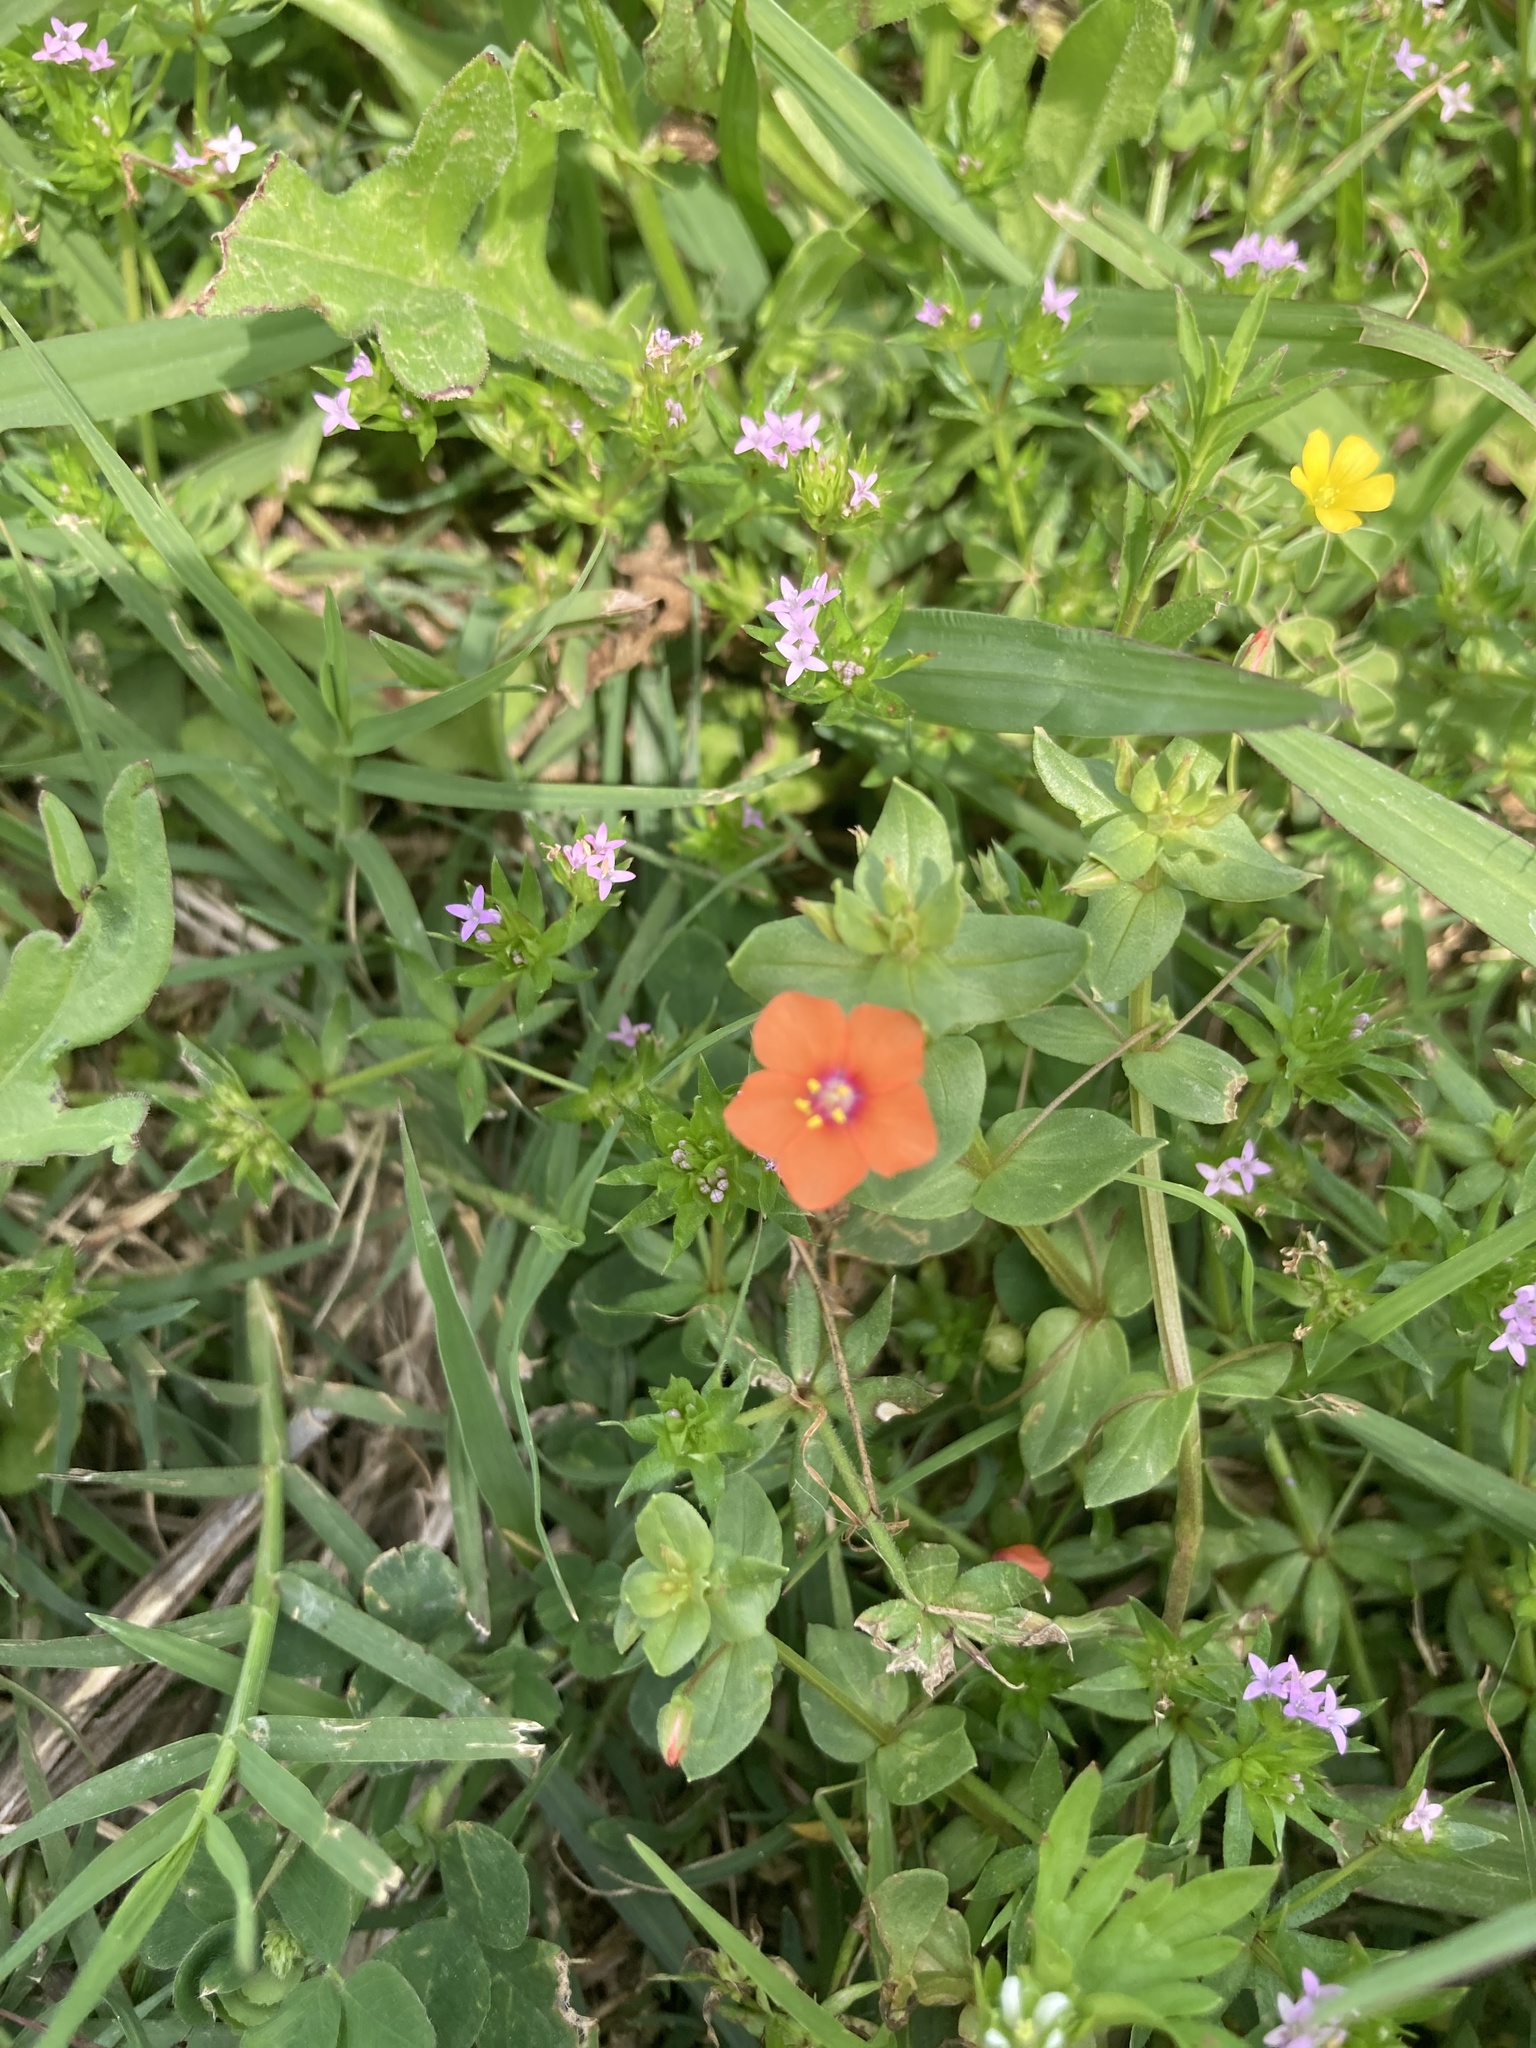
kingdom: Plantae
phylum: Tracheophyta
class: Magnoliopsida
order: Ericales
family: Primulaceae
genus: Lysimachia
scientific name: Lysimachia arvensis
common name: Scarlet pimpernel
